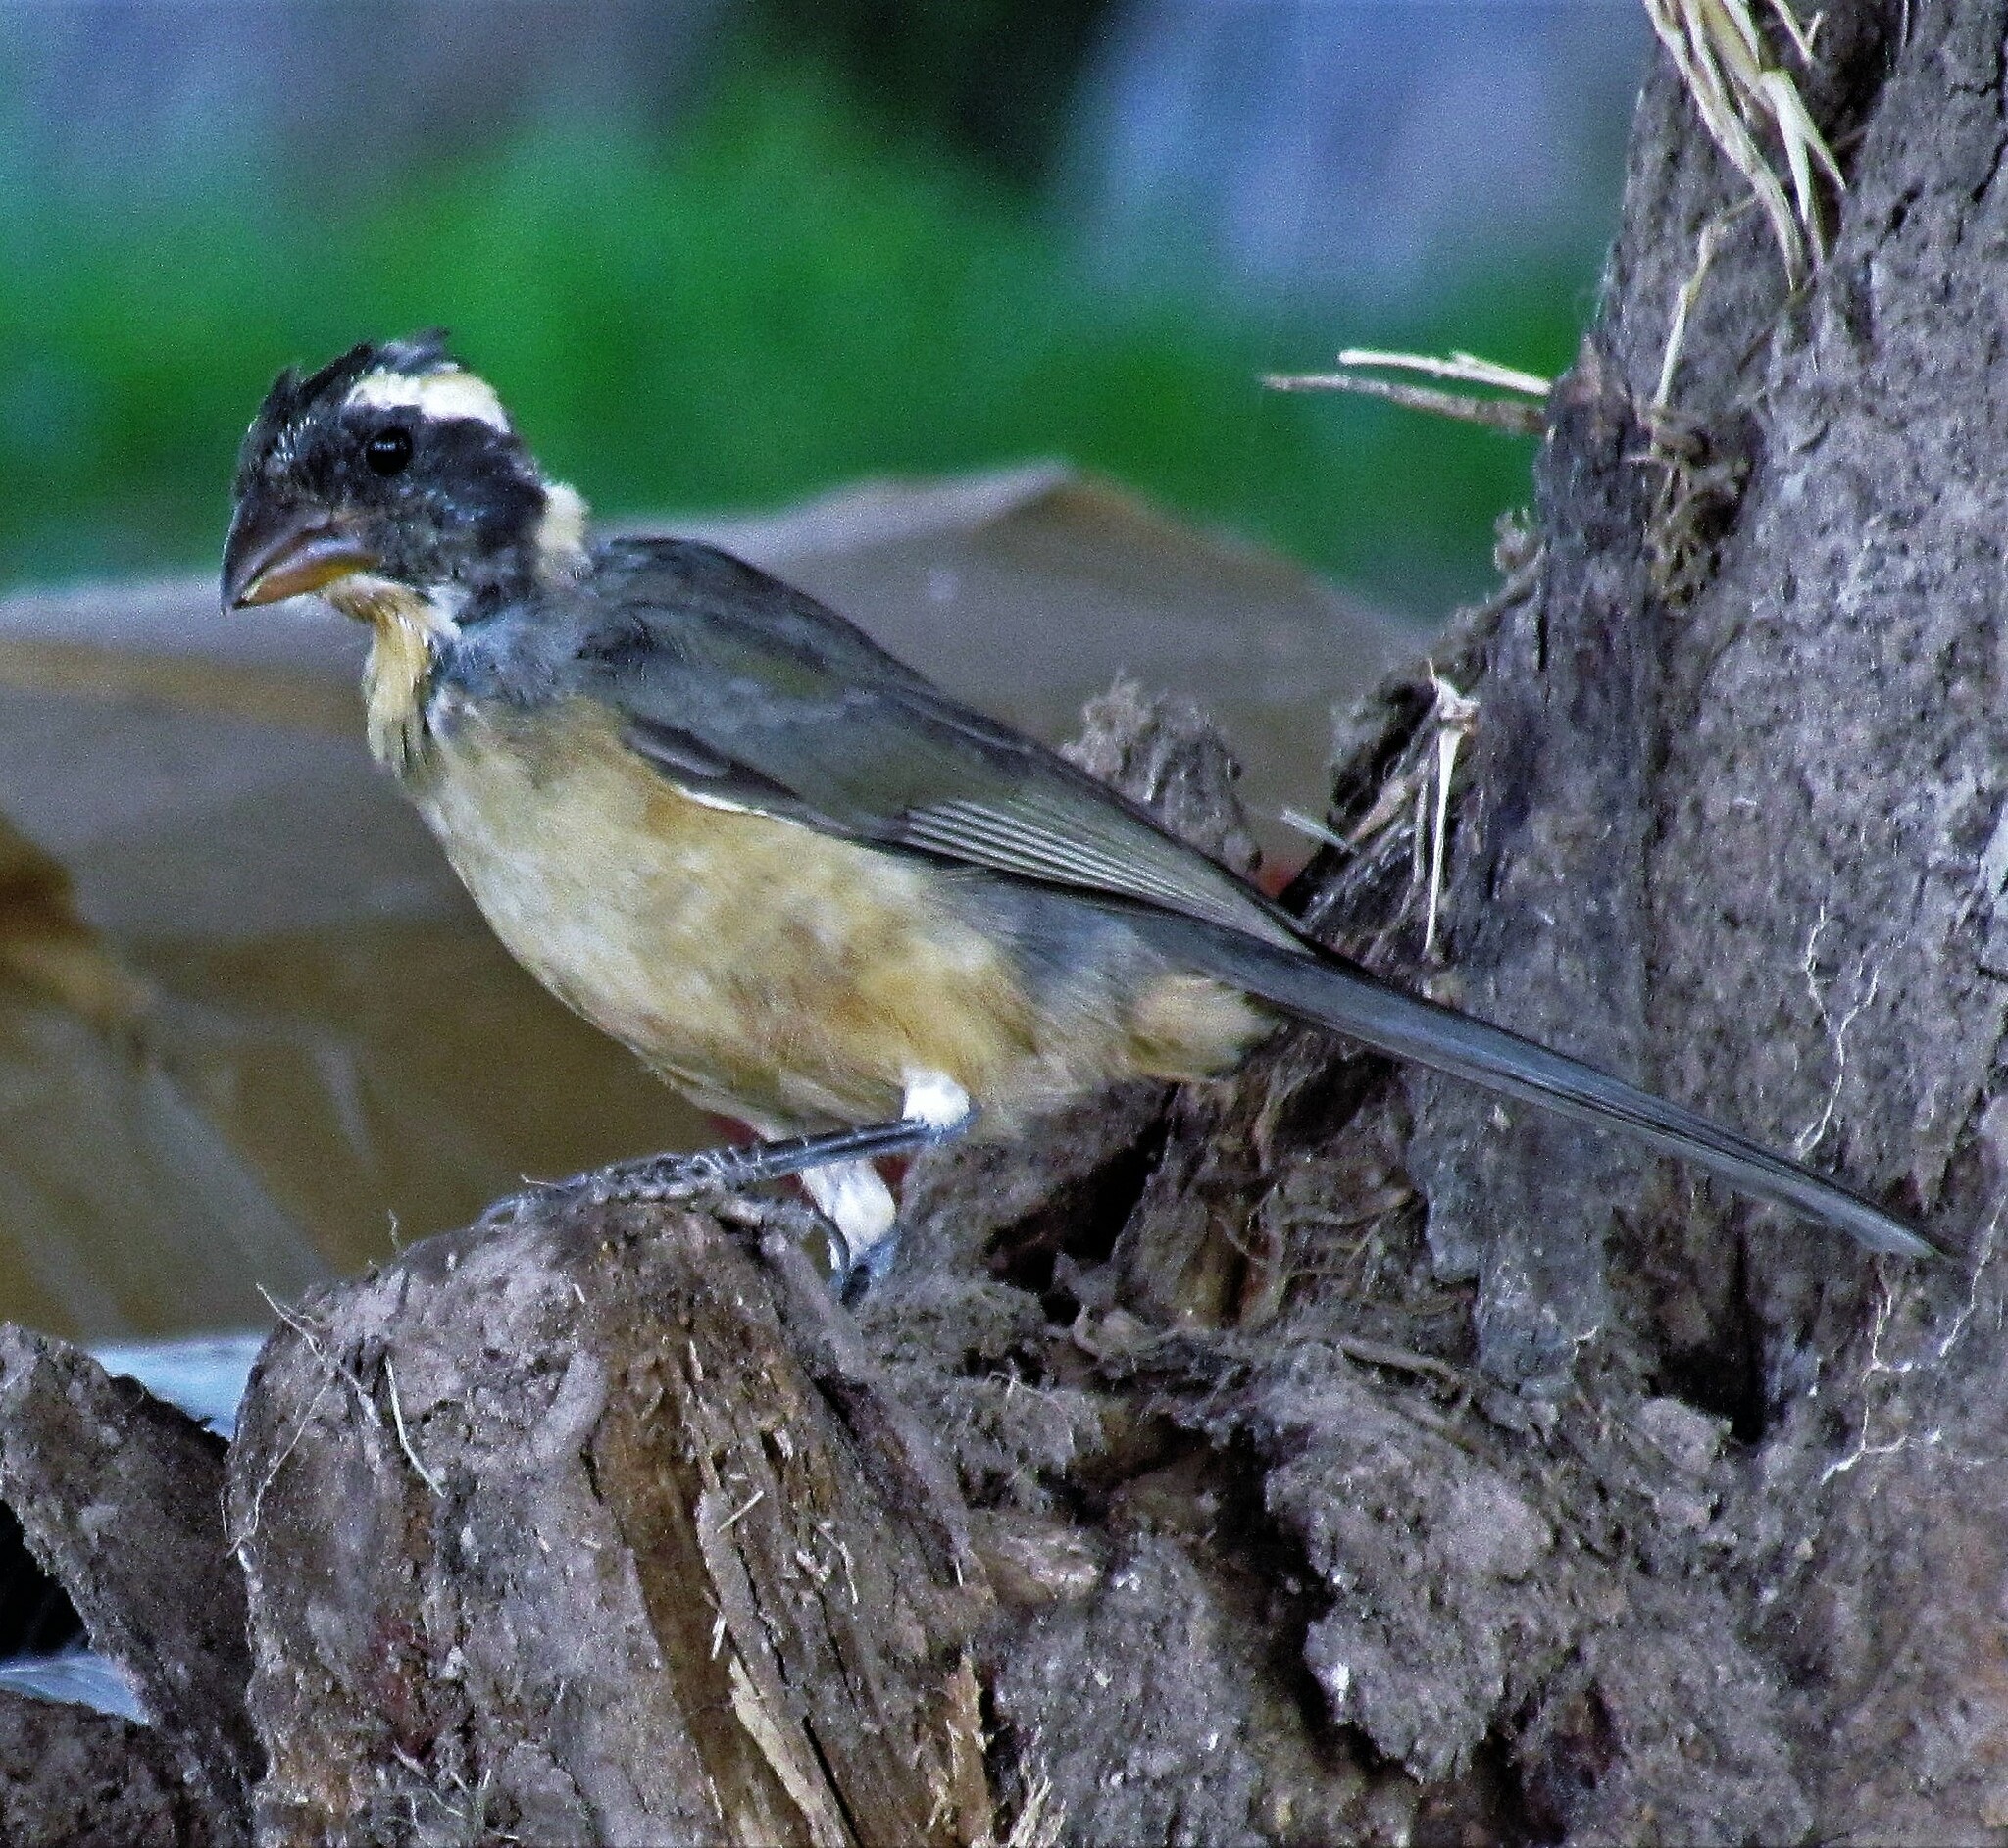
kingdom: Animalia
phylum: Chordata
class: Aves
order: Passeriformes
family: Thraupidae
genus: Saltator
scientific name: Saltator aurantiirostris
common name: Golden-billed saltator
